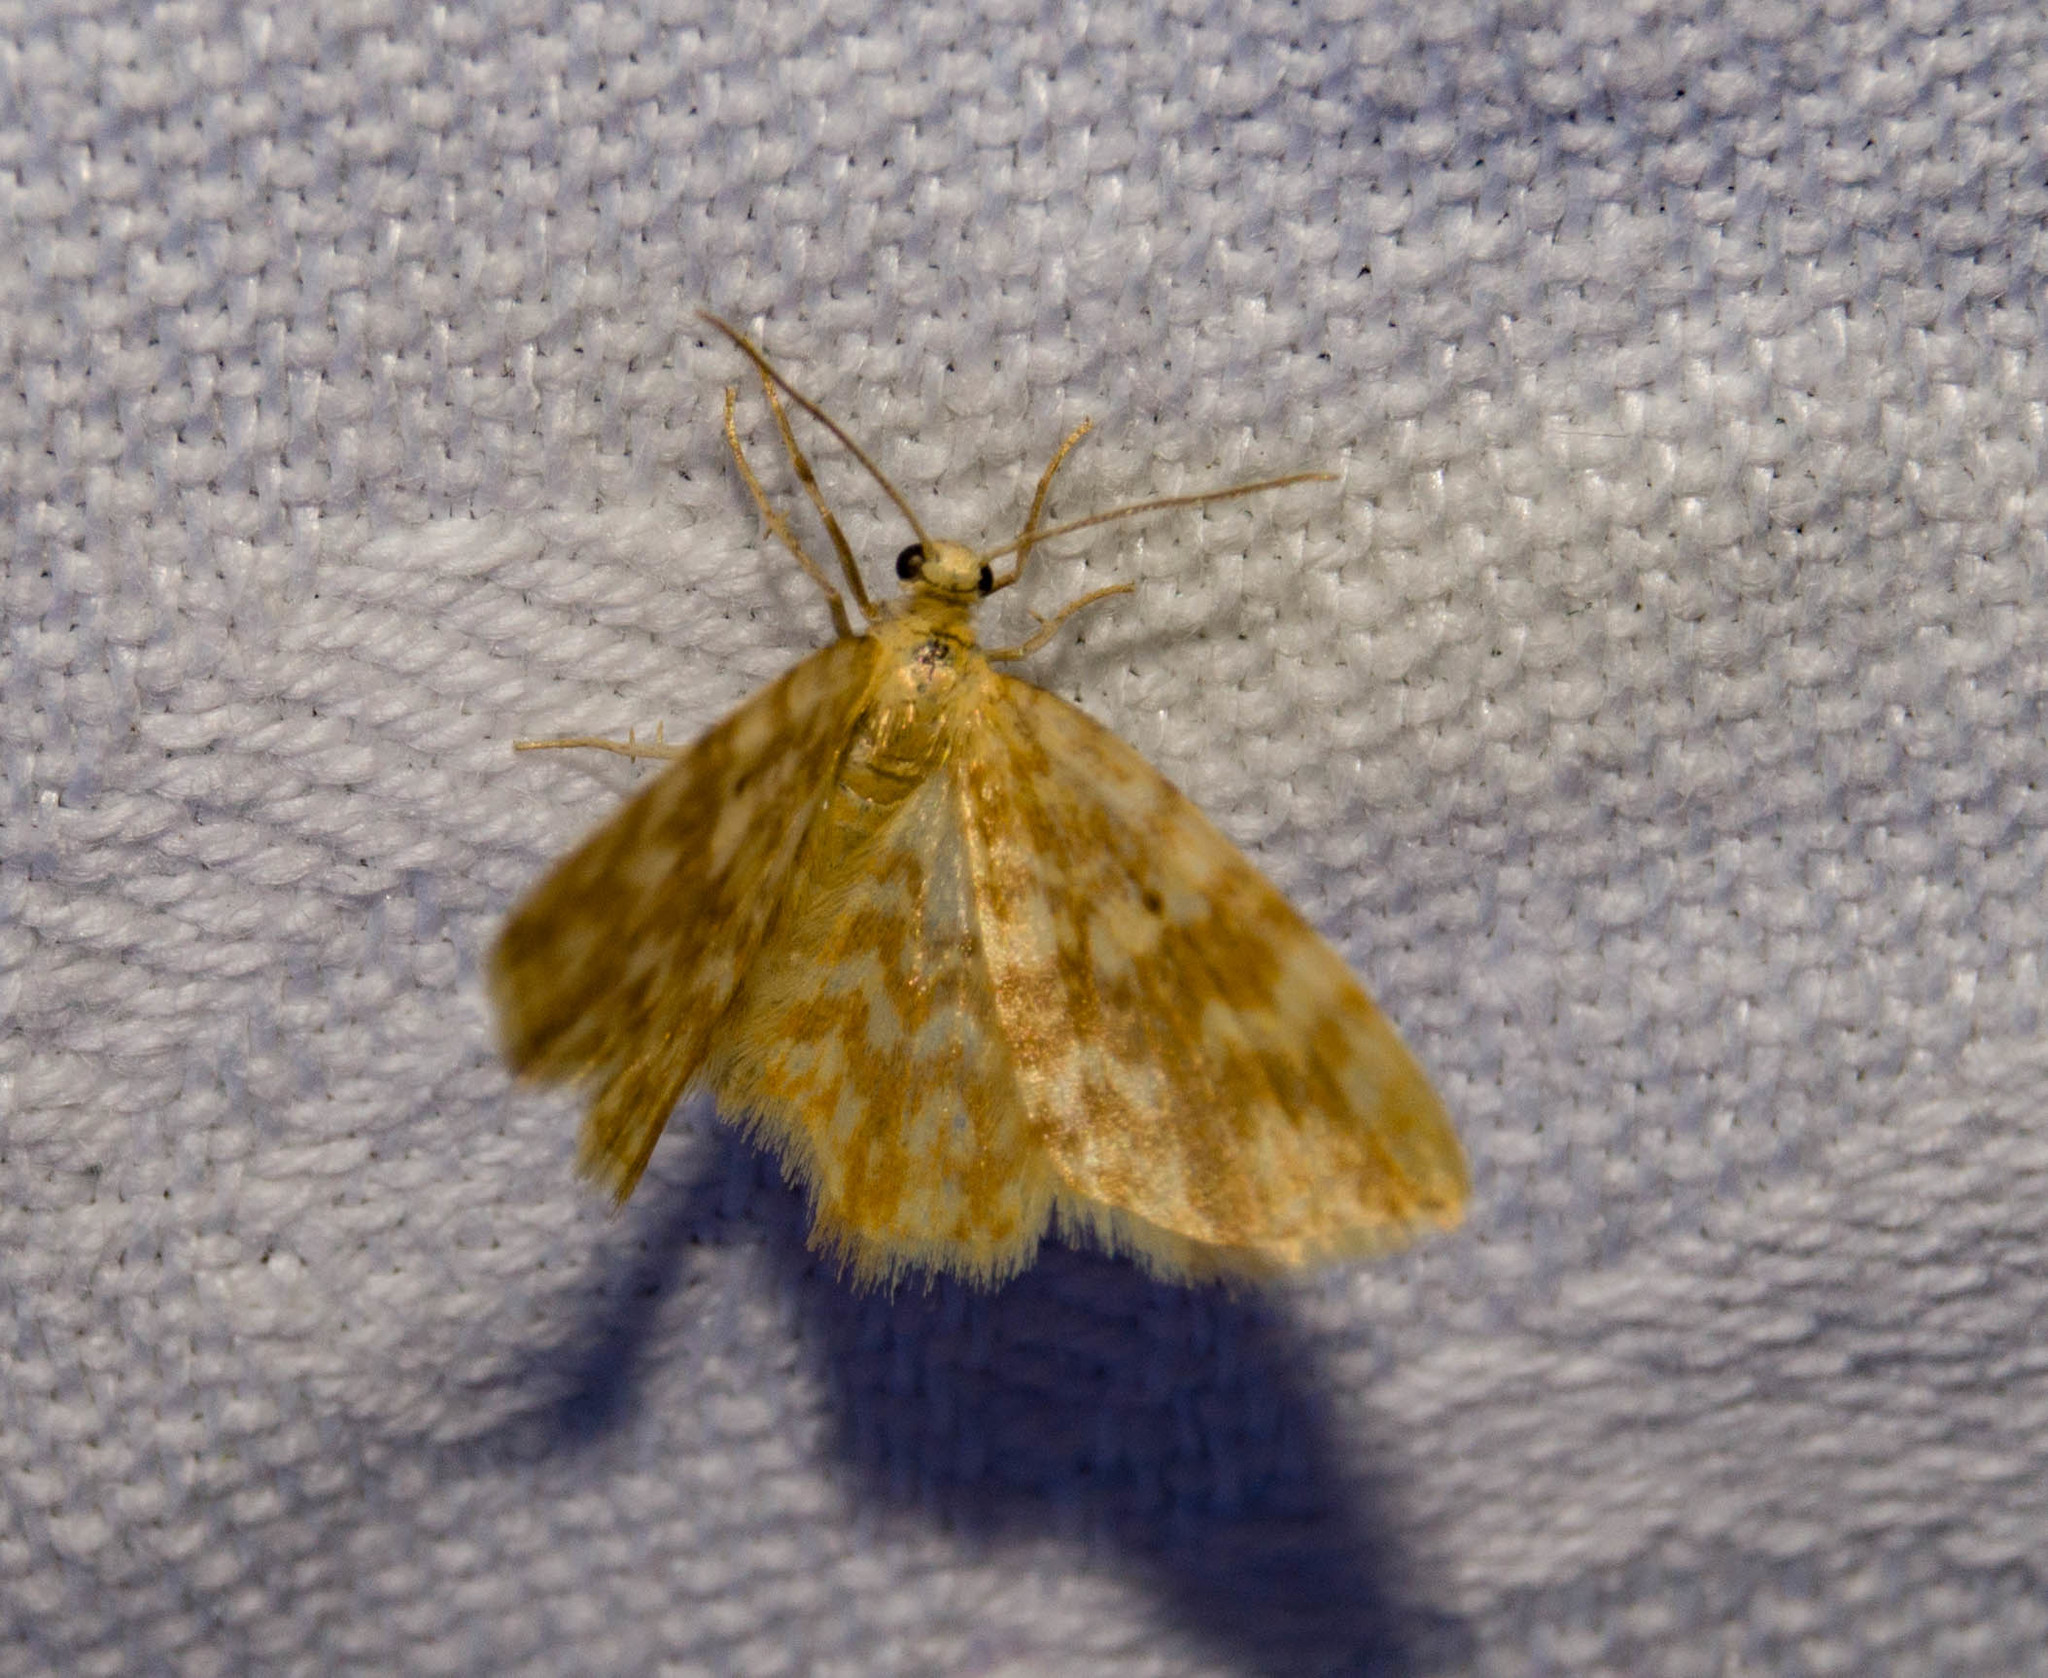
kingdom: Animalia
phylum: Arthropoda
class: Insecta
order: Lepidoptera
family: Geometridae
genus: Hydrelia
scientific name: Hydrelia flammeolaria
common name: Small yellow wave
